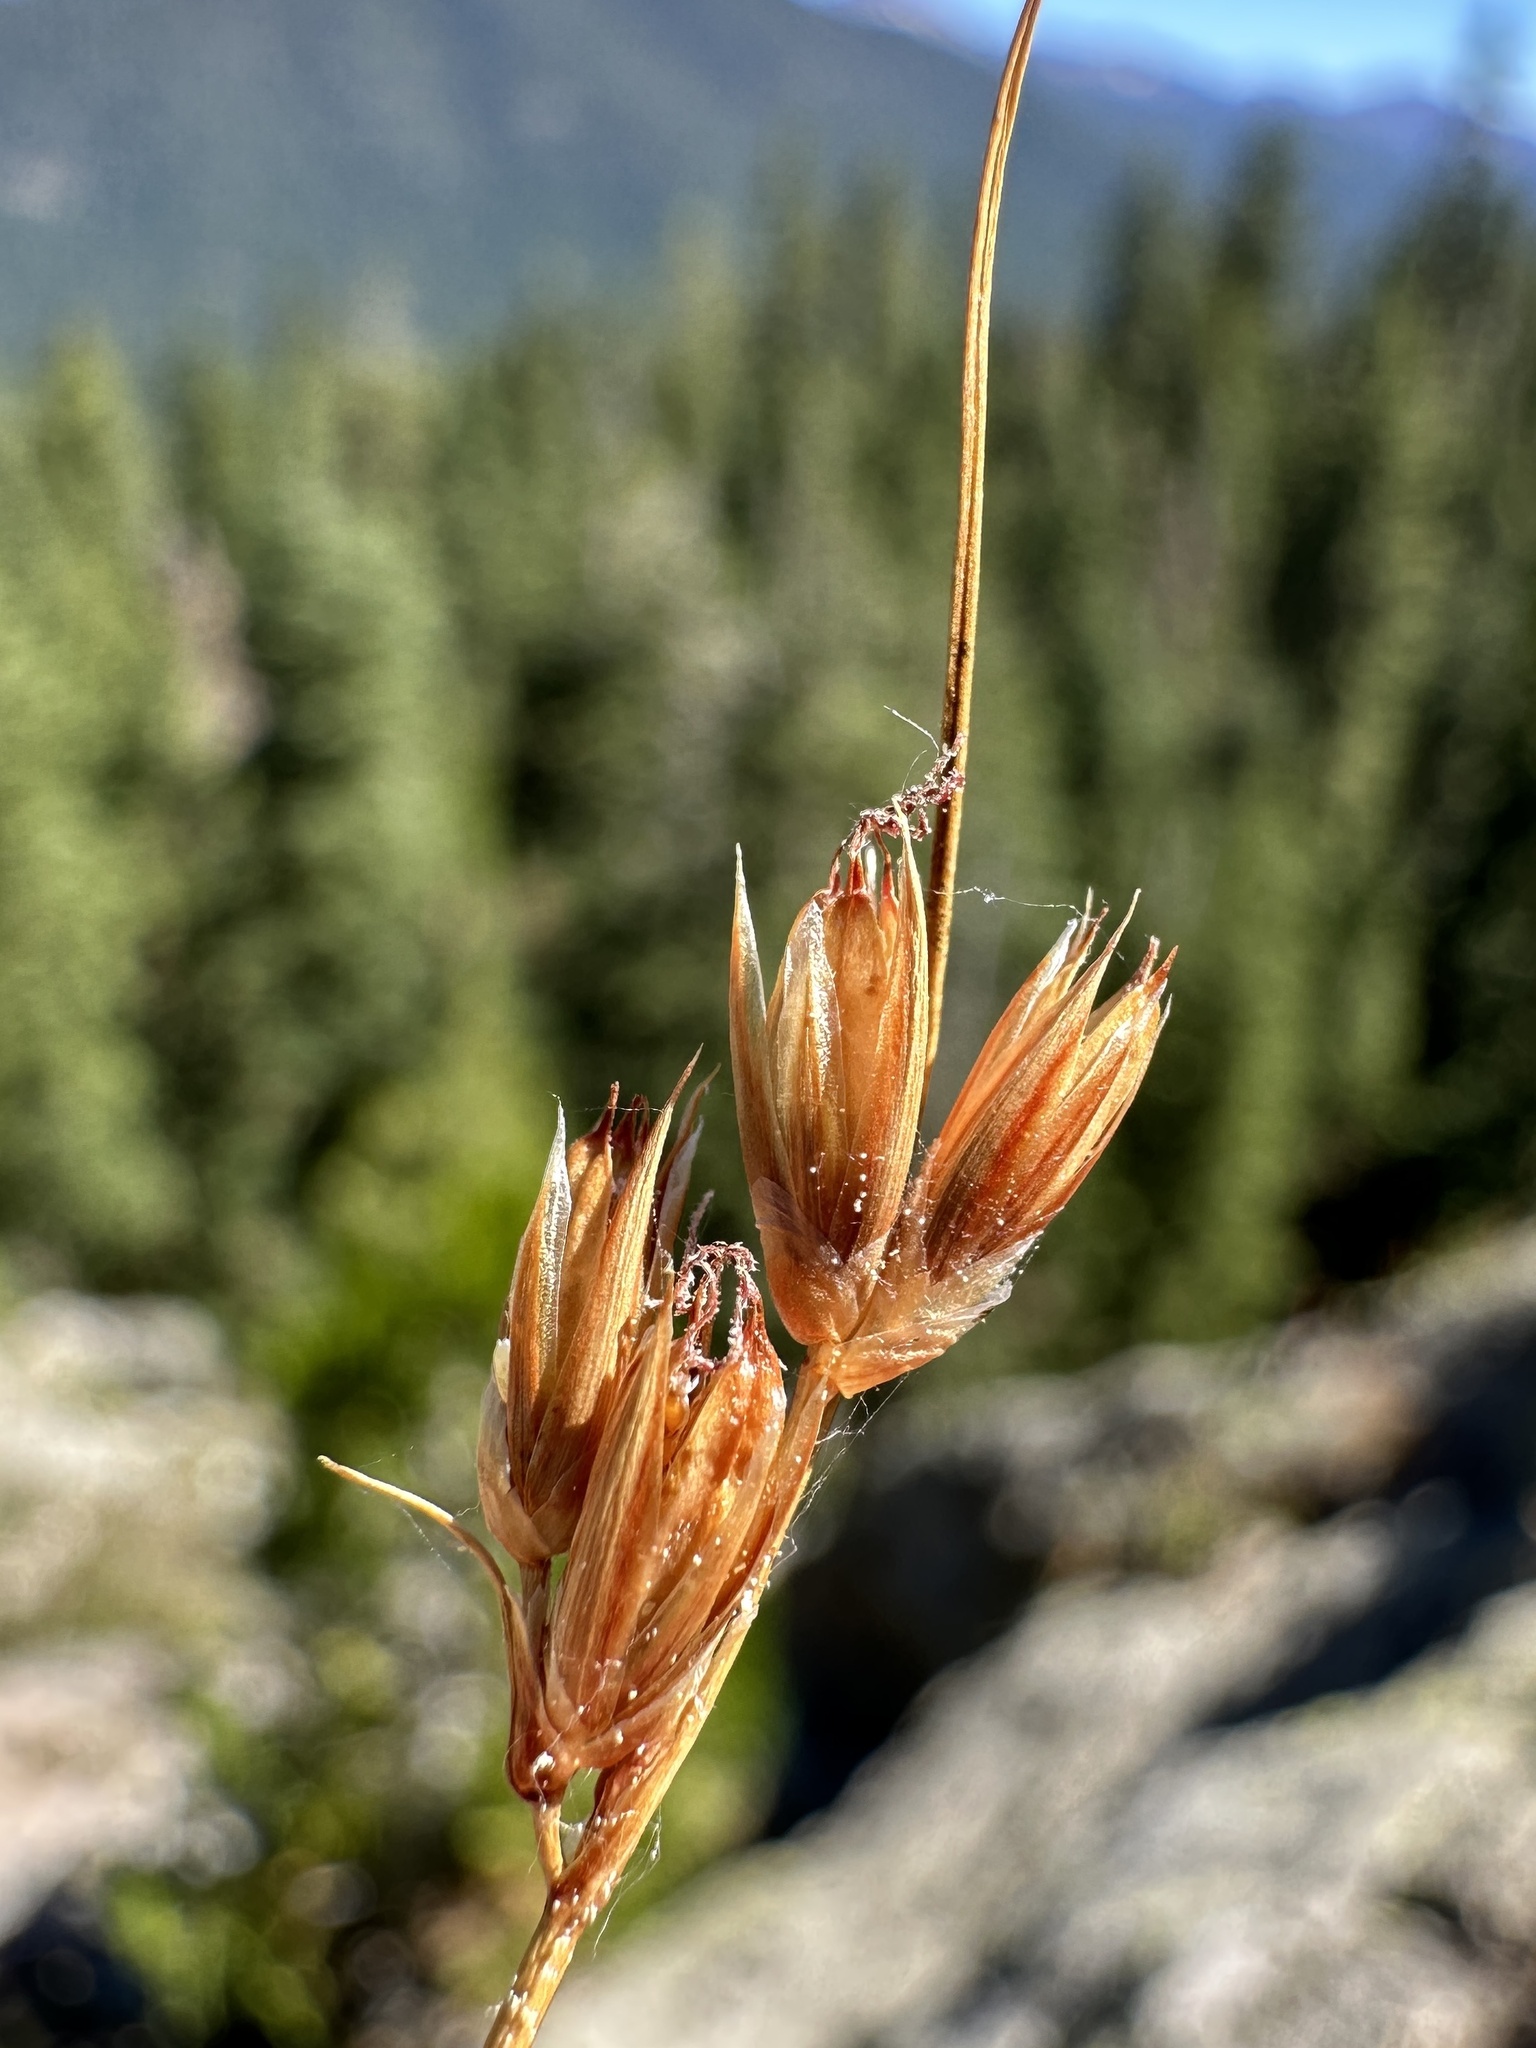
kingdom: Plantae
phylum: Tracheophyta
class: Liliopsida
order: Poales
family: Juncaceae
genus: Juncus
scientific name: Juncus parryi
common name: Parry's rush
